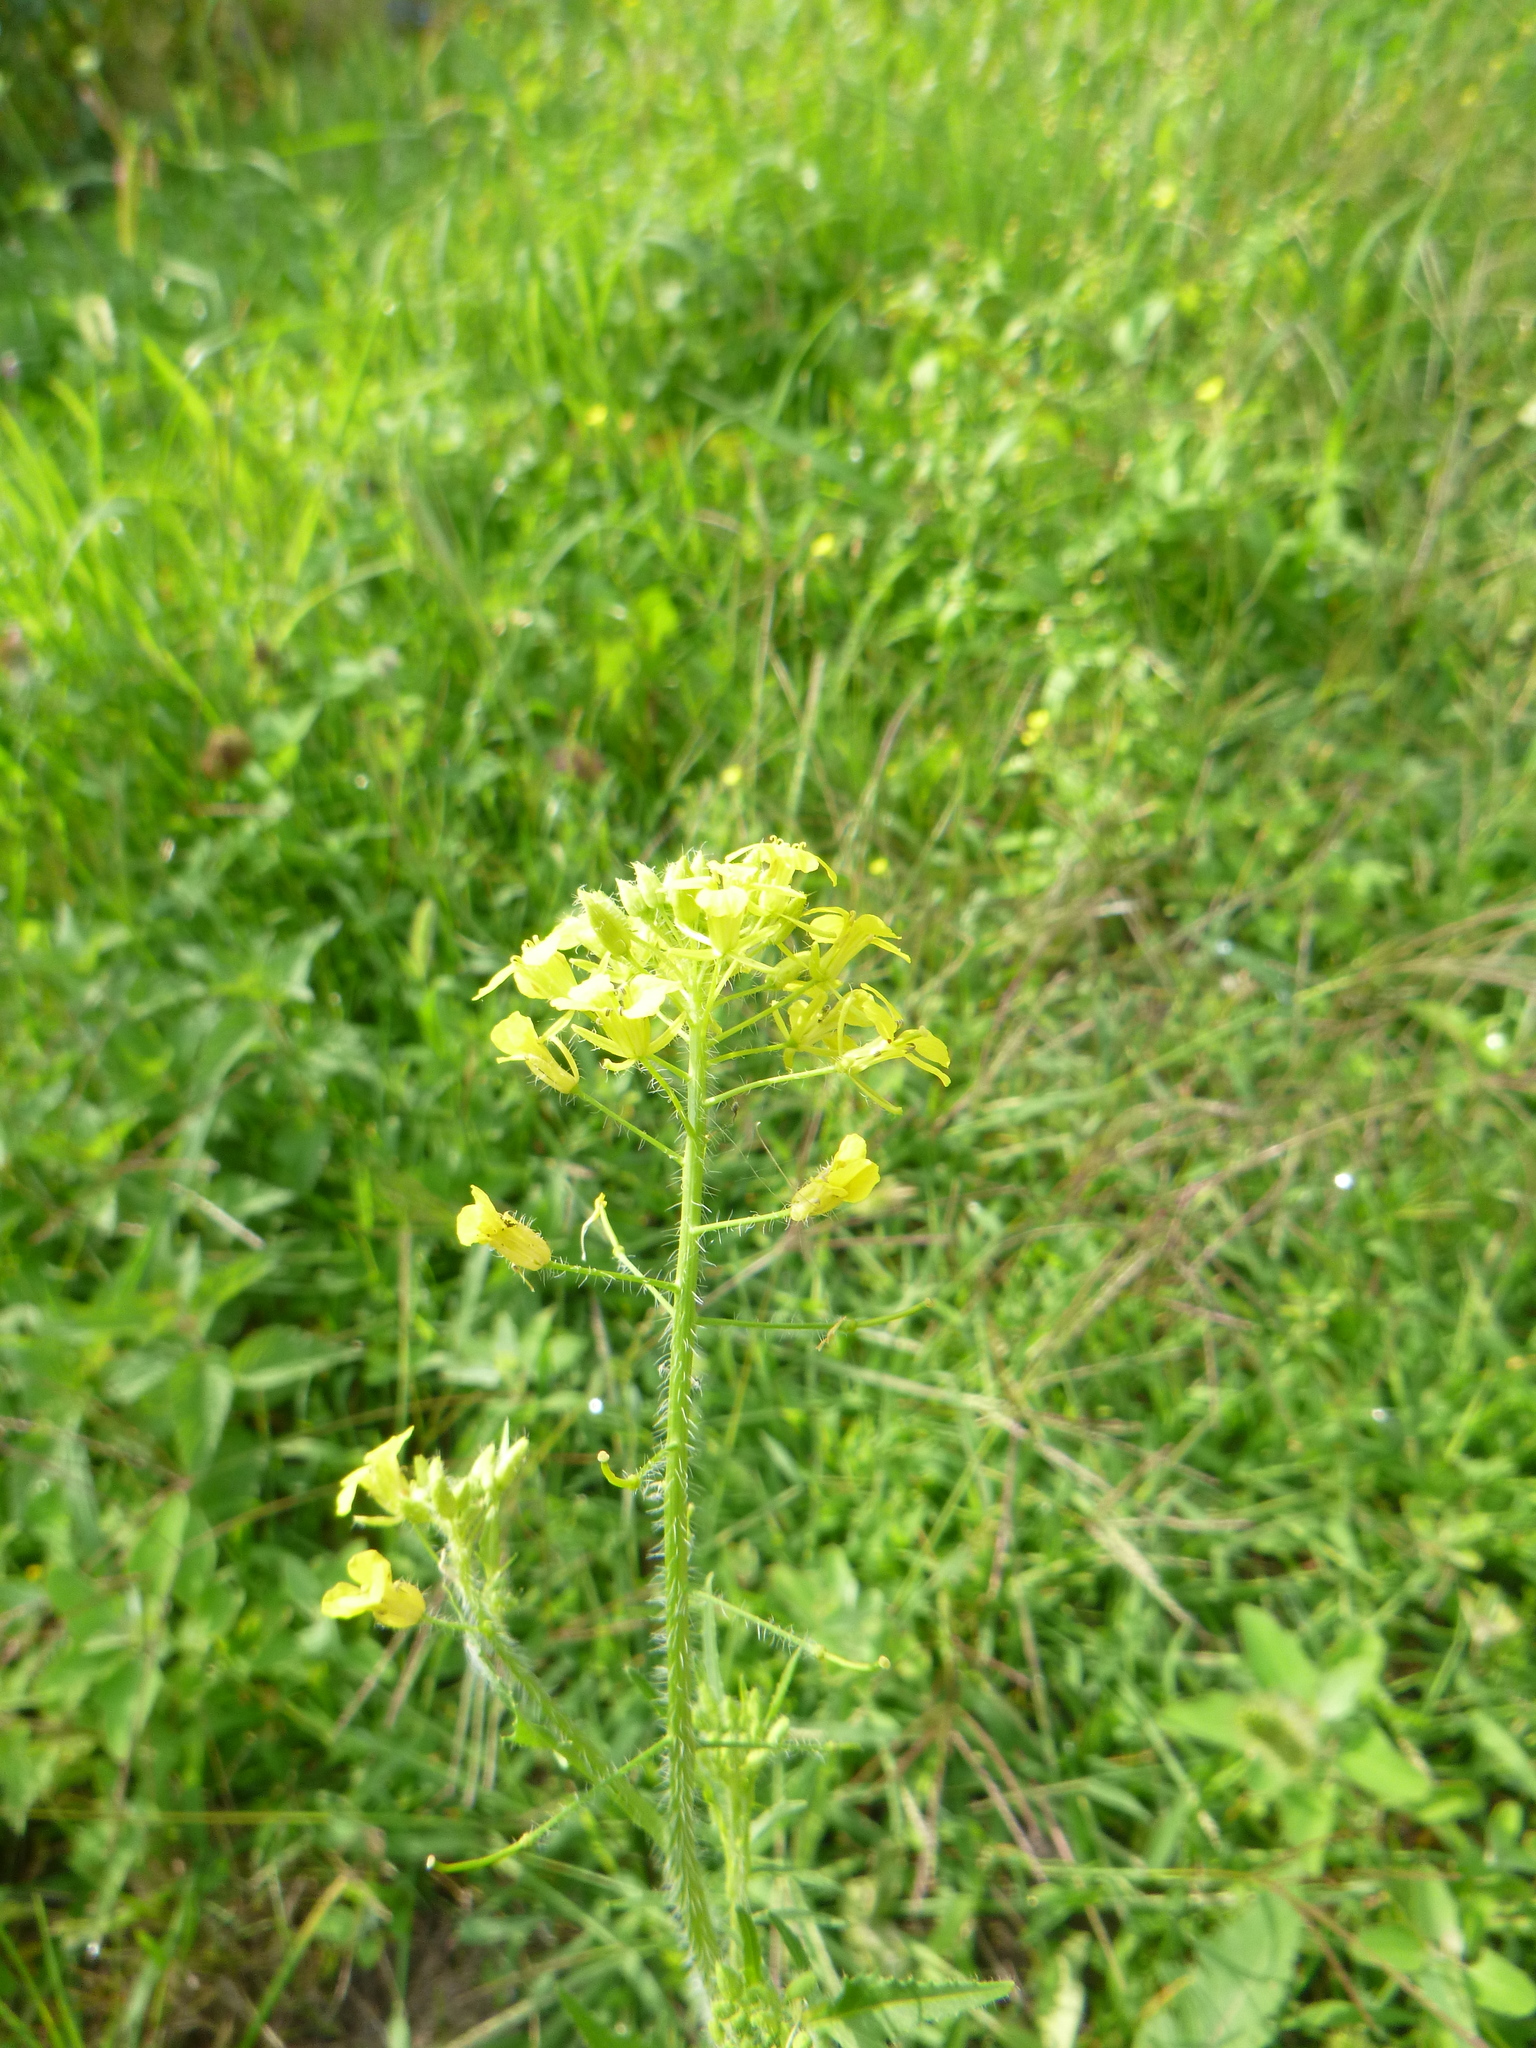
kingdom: Plantae
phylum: Tracheophyta
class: Magnoliopsida
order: Brassicales
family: Brassicaceae
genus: Sisymbrium
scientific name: Sisymbrium loeselii
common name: False london-rocket
